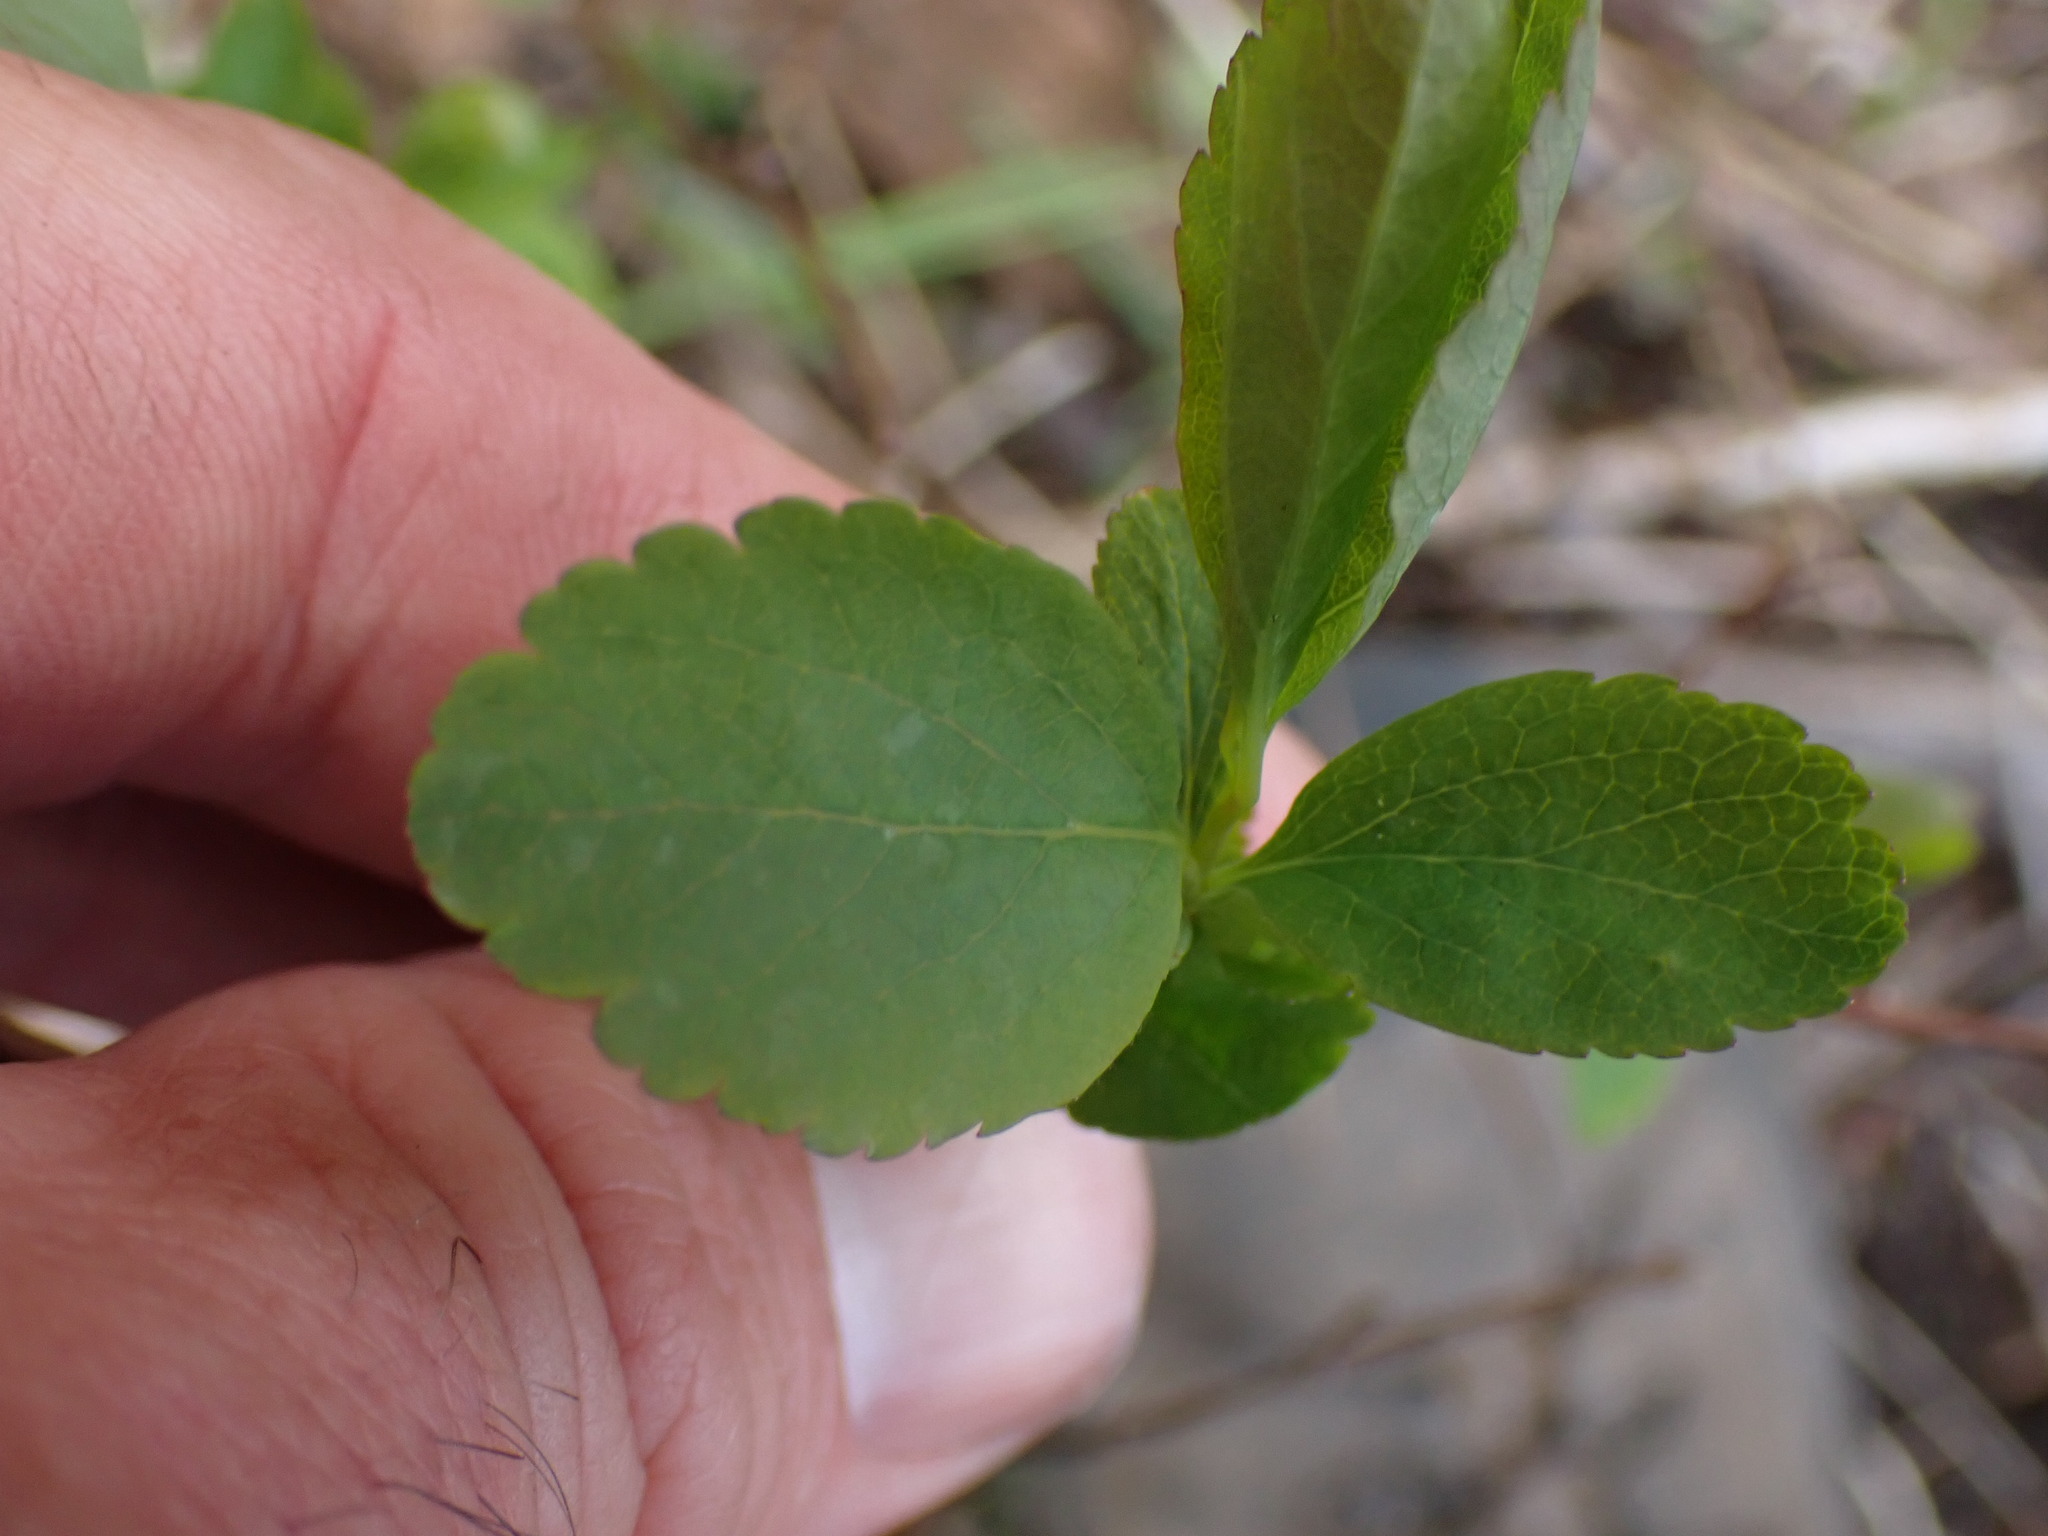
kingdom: Plantae
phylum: Tracheophyta
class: Magnoliopsida
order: Rosales
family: Rosaceae
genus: Spiraea
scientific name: Spiraea lucida
